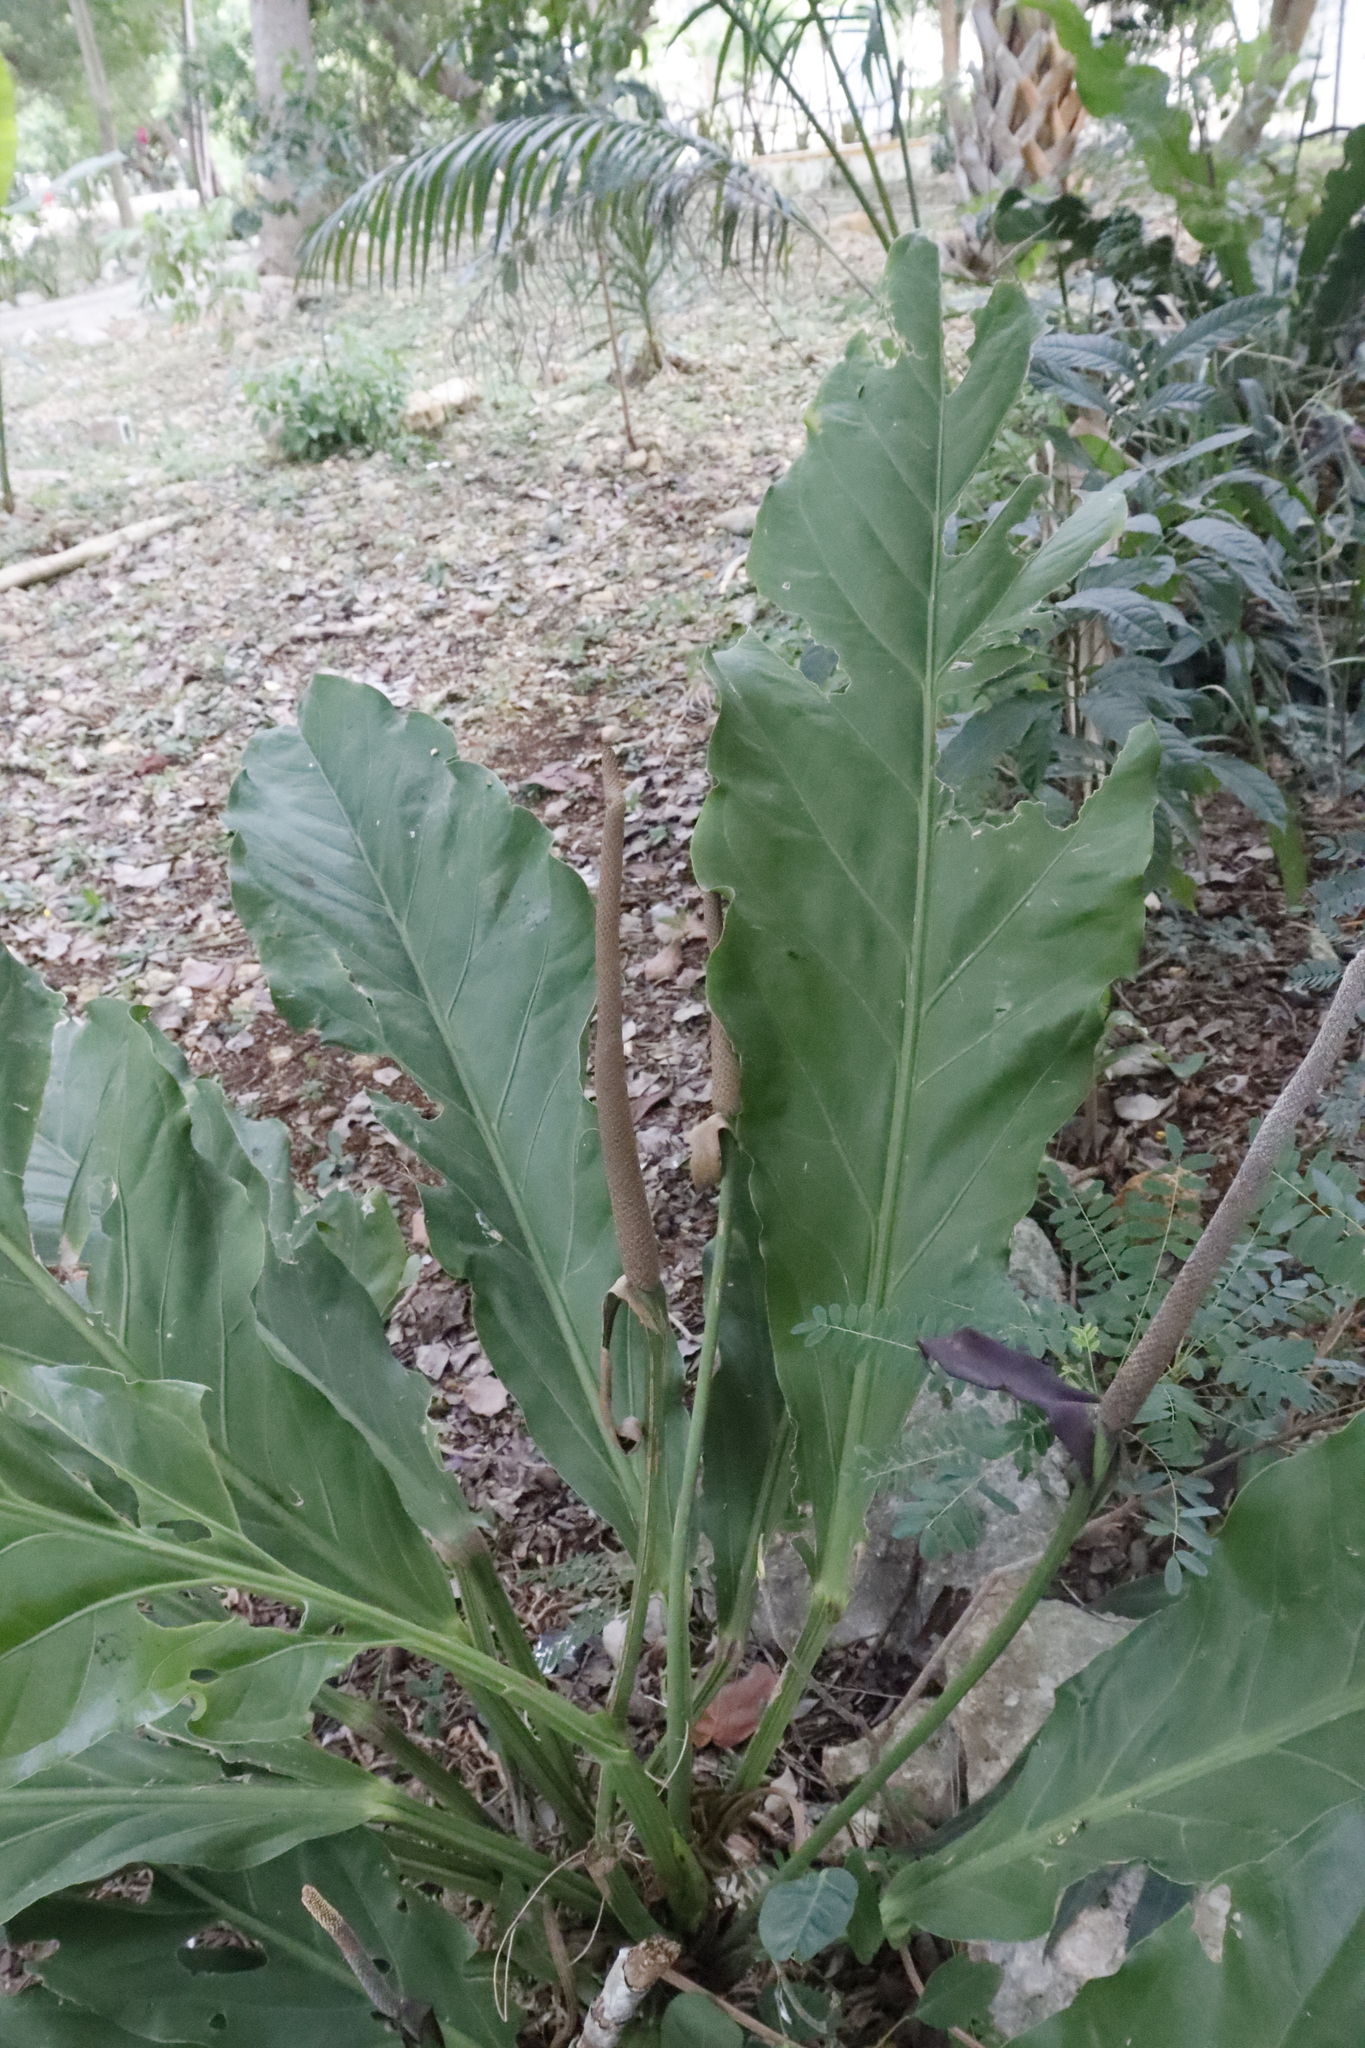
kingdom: Plantae
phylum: Tracheophyta
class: Liliopsida
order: Alismatales
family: Araceae
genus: Anthurium
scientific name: Anthurium schlechtendalii
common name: Laceleaf
